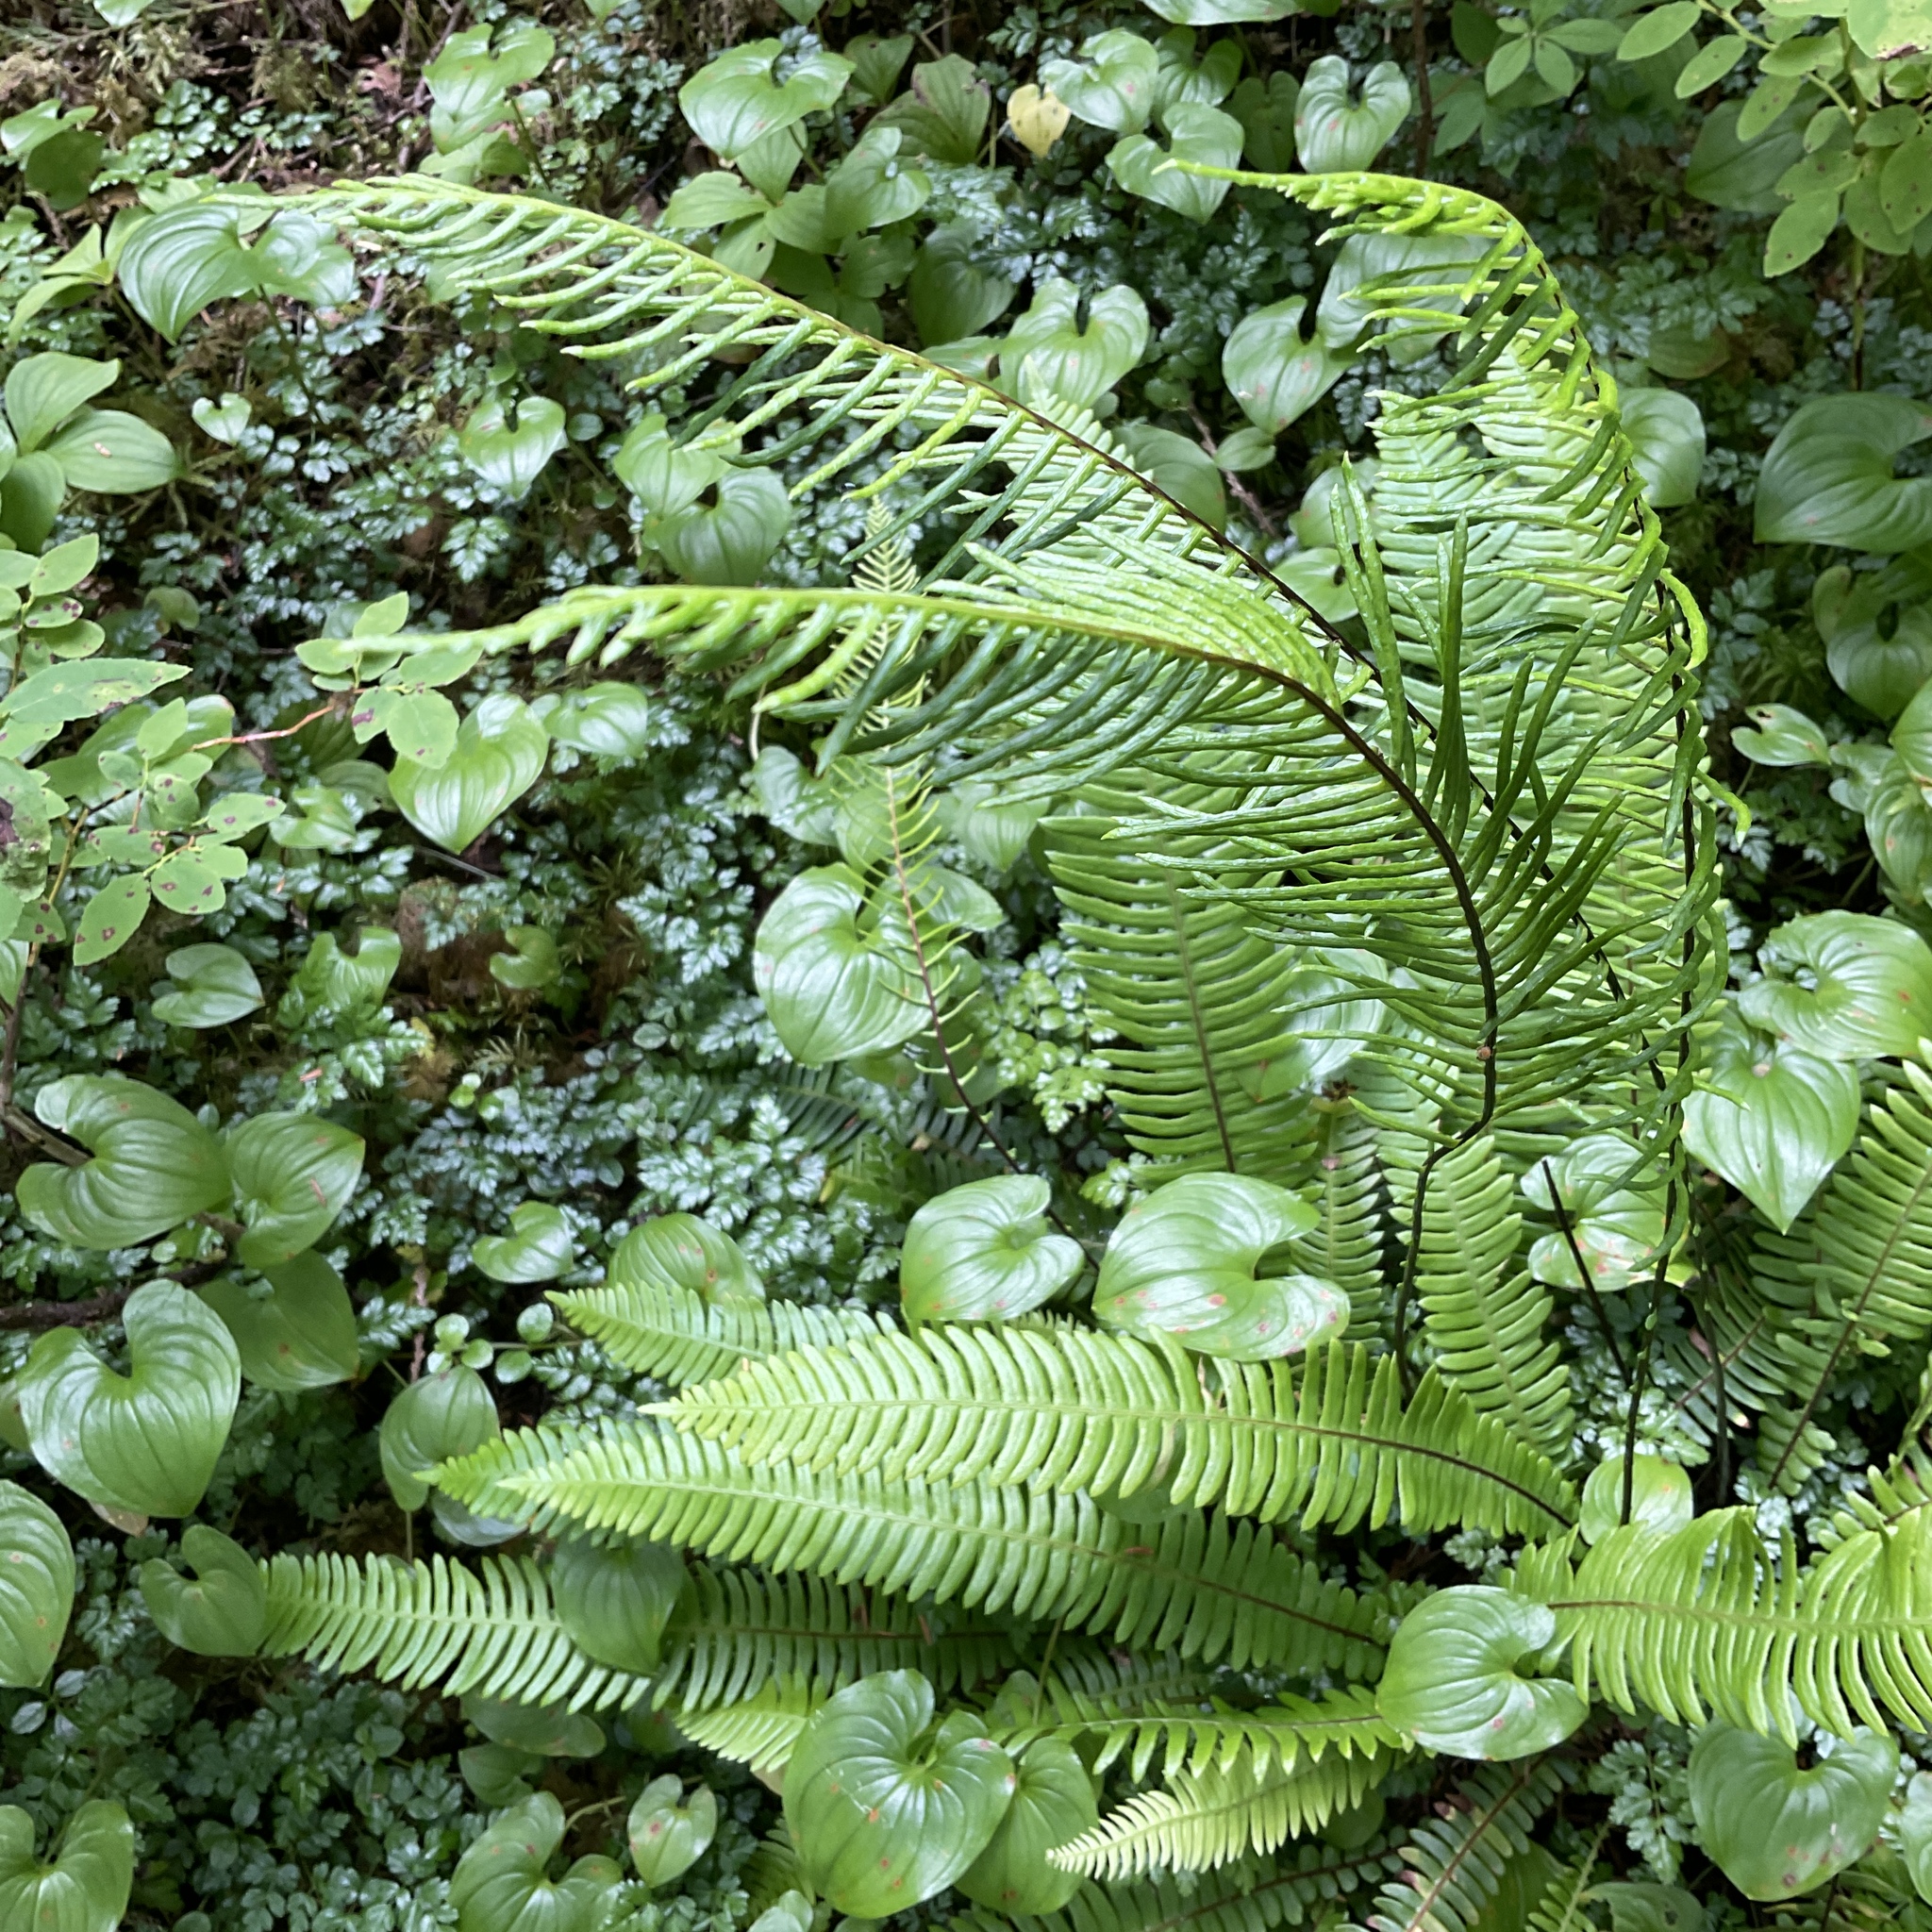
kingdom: Plantae
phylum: Tracheophyta
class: Polypodiopsida
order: Polypodiales
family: Blechnaceae
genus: Struthiopteris
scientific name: Struthiopteris spicant
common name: Deer fern
